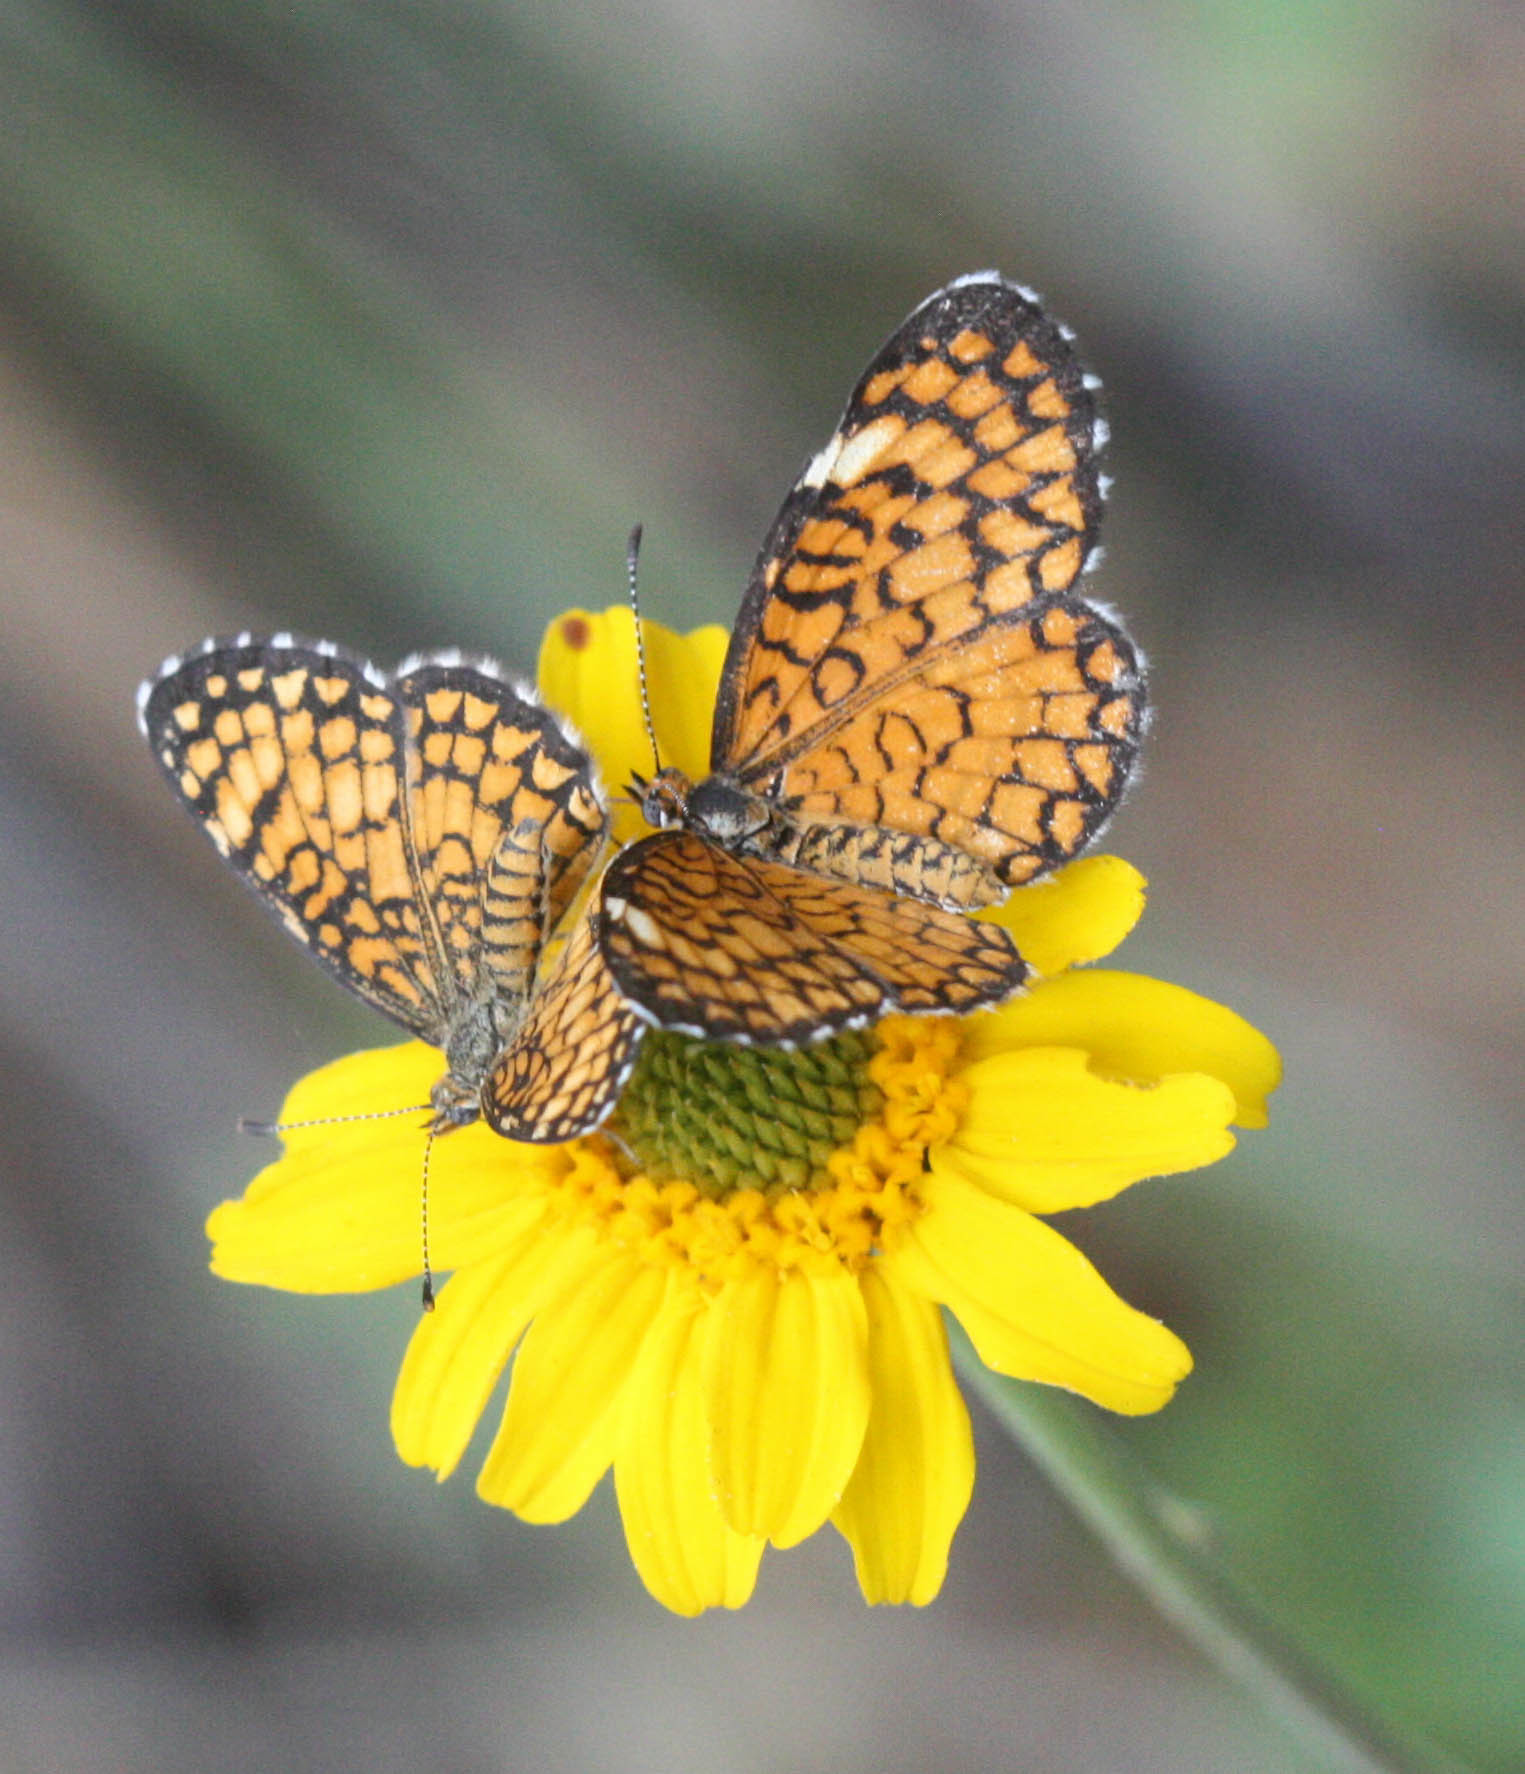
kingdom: Animalia
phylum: Arthropoda
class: Insecta
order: Lepidoptera
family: Nymphalidae
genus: Dymasia
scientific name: Dymasia dymas
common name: Tiny checkerspot
